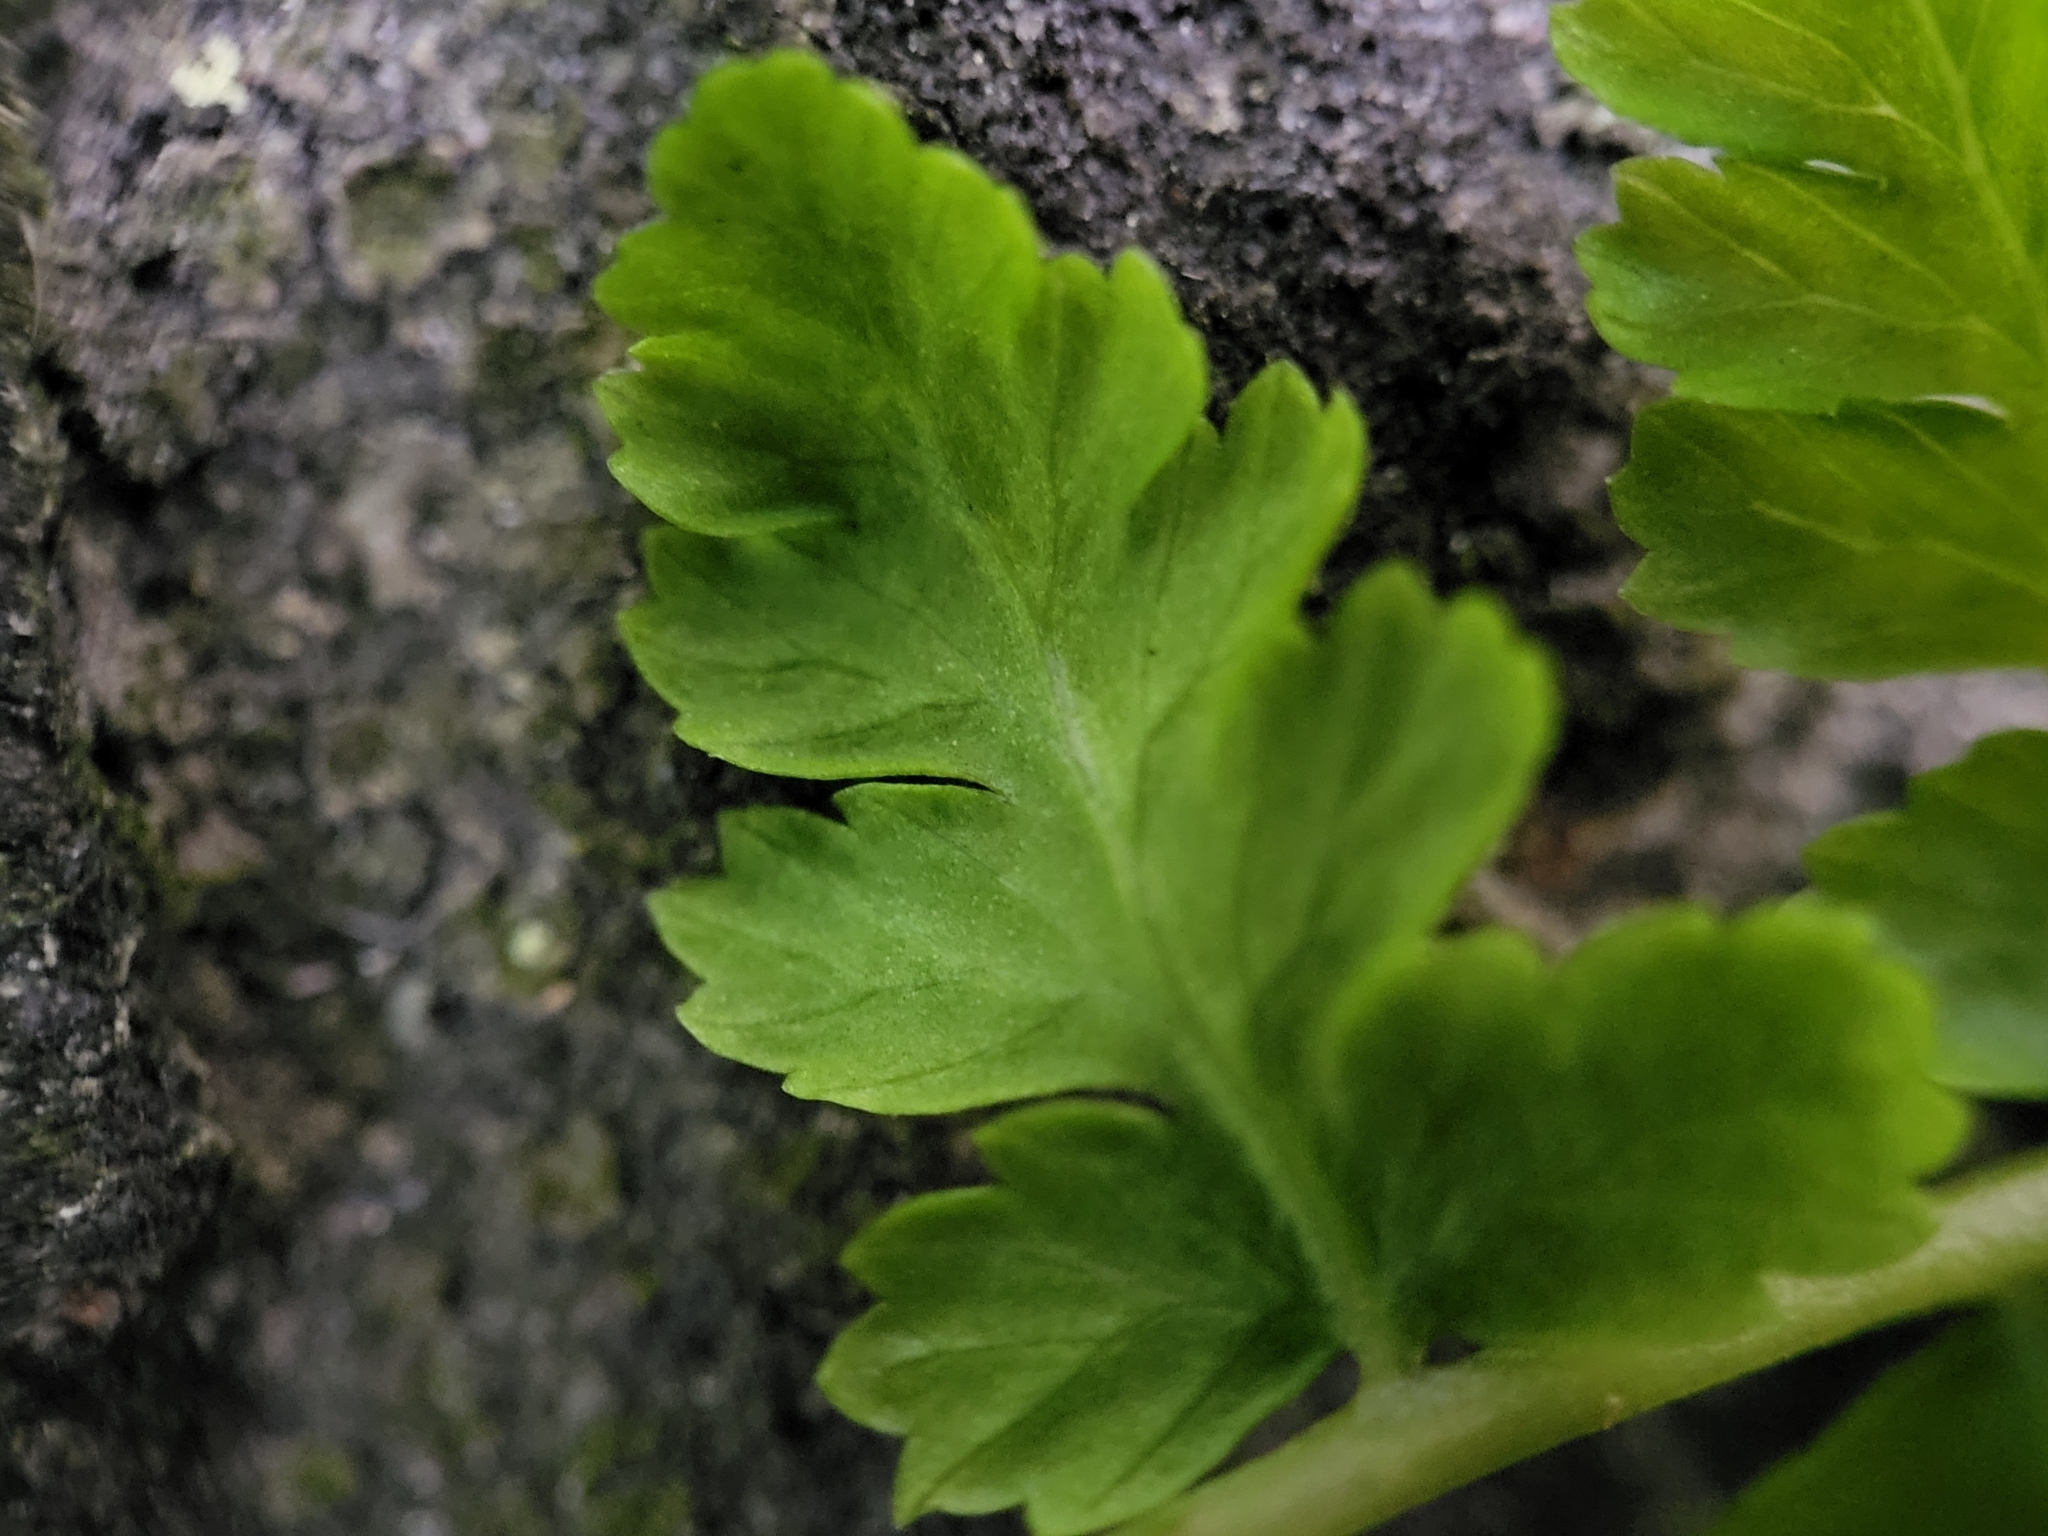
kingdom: Plantae
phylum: Tracheophyta
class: Polypodiopsida
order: Polypodiales
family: Athyriaceae
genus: Athyrium
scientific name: Athyrium angustum
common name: Northern lady fern
